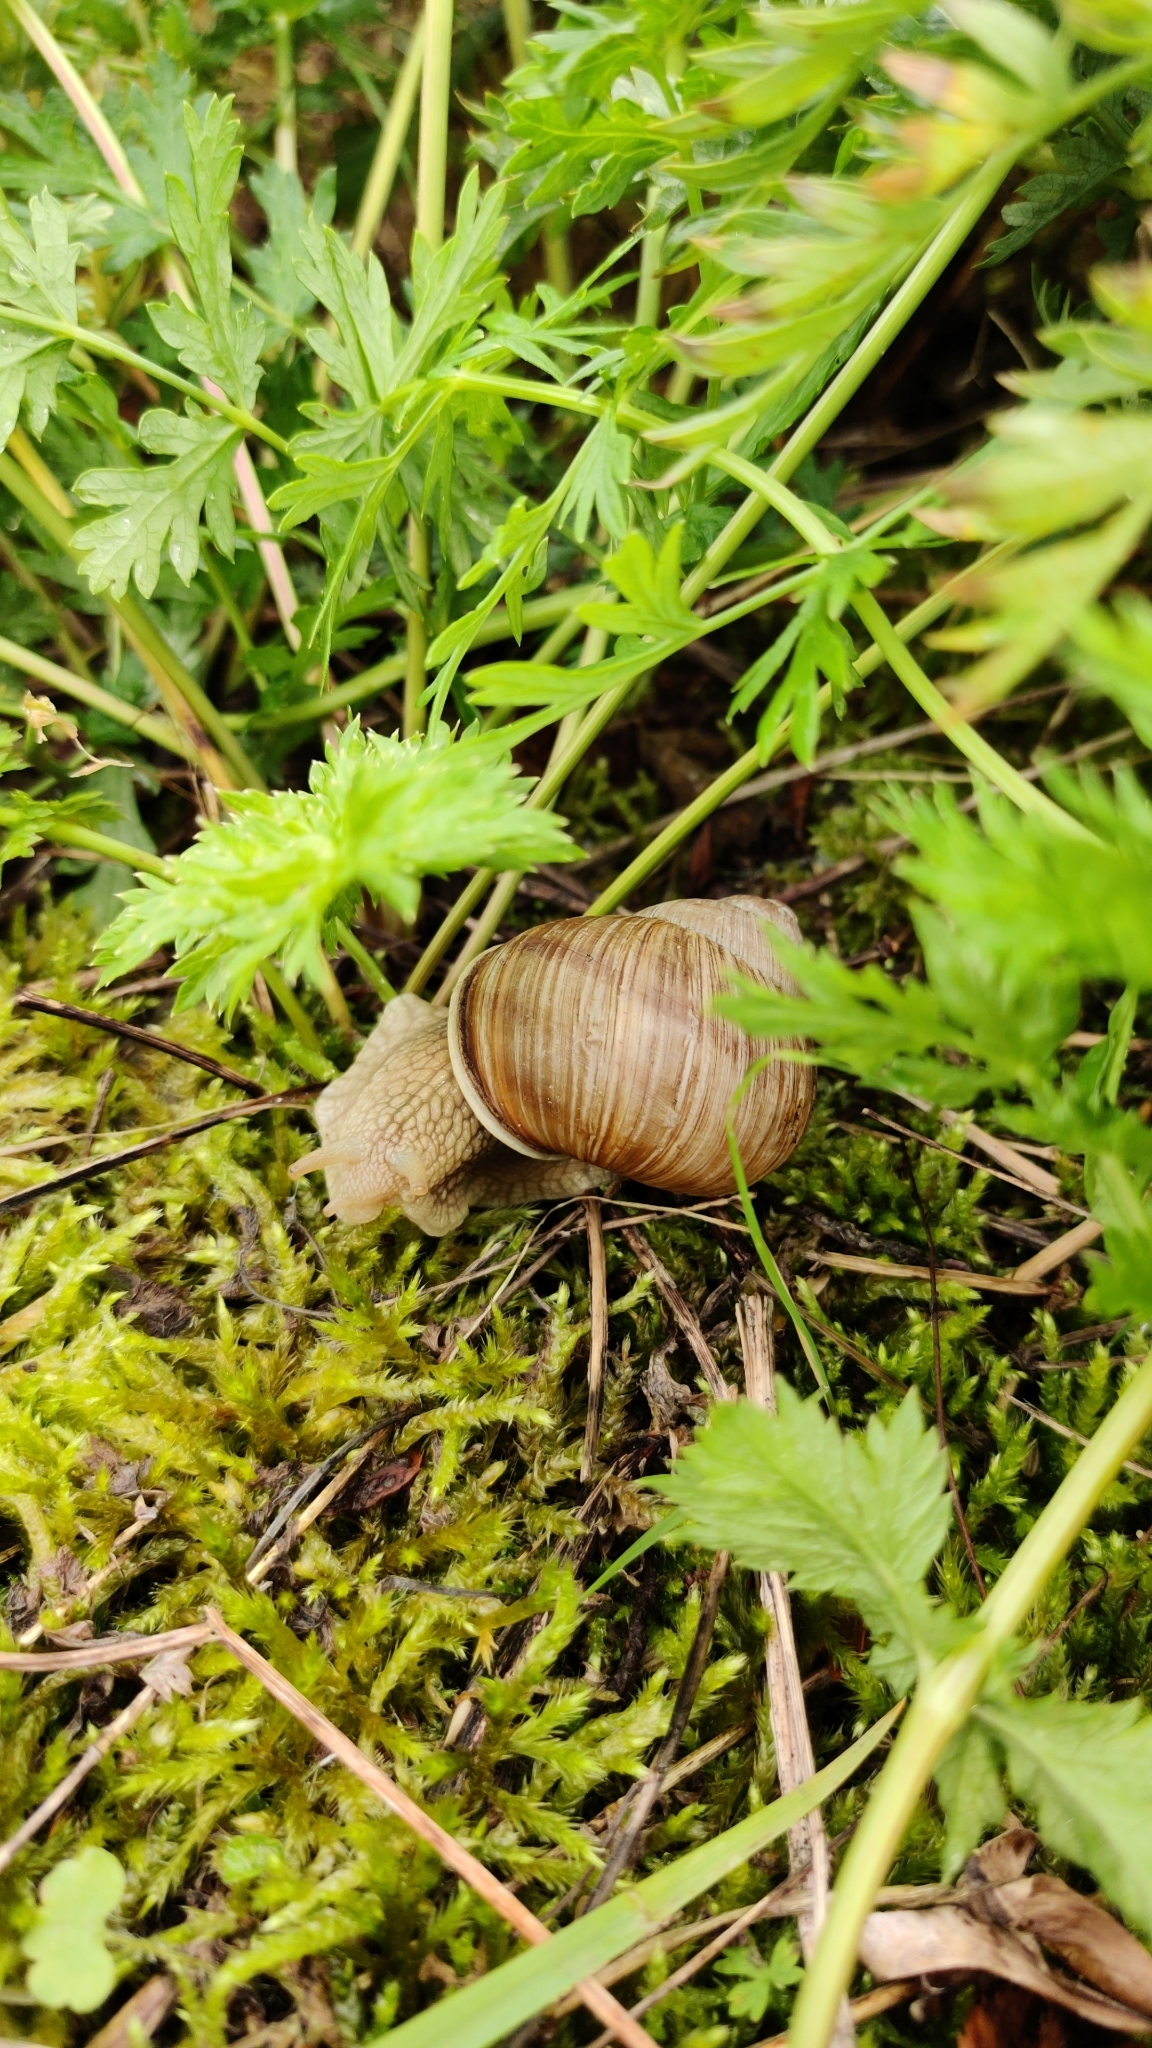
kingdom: Animalia
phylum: Mollusca
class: Gastropoda
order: Stylommatophora
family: Helicidae
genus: Helix
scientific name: Helix pomatia
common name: Roman snail
